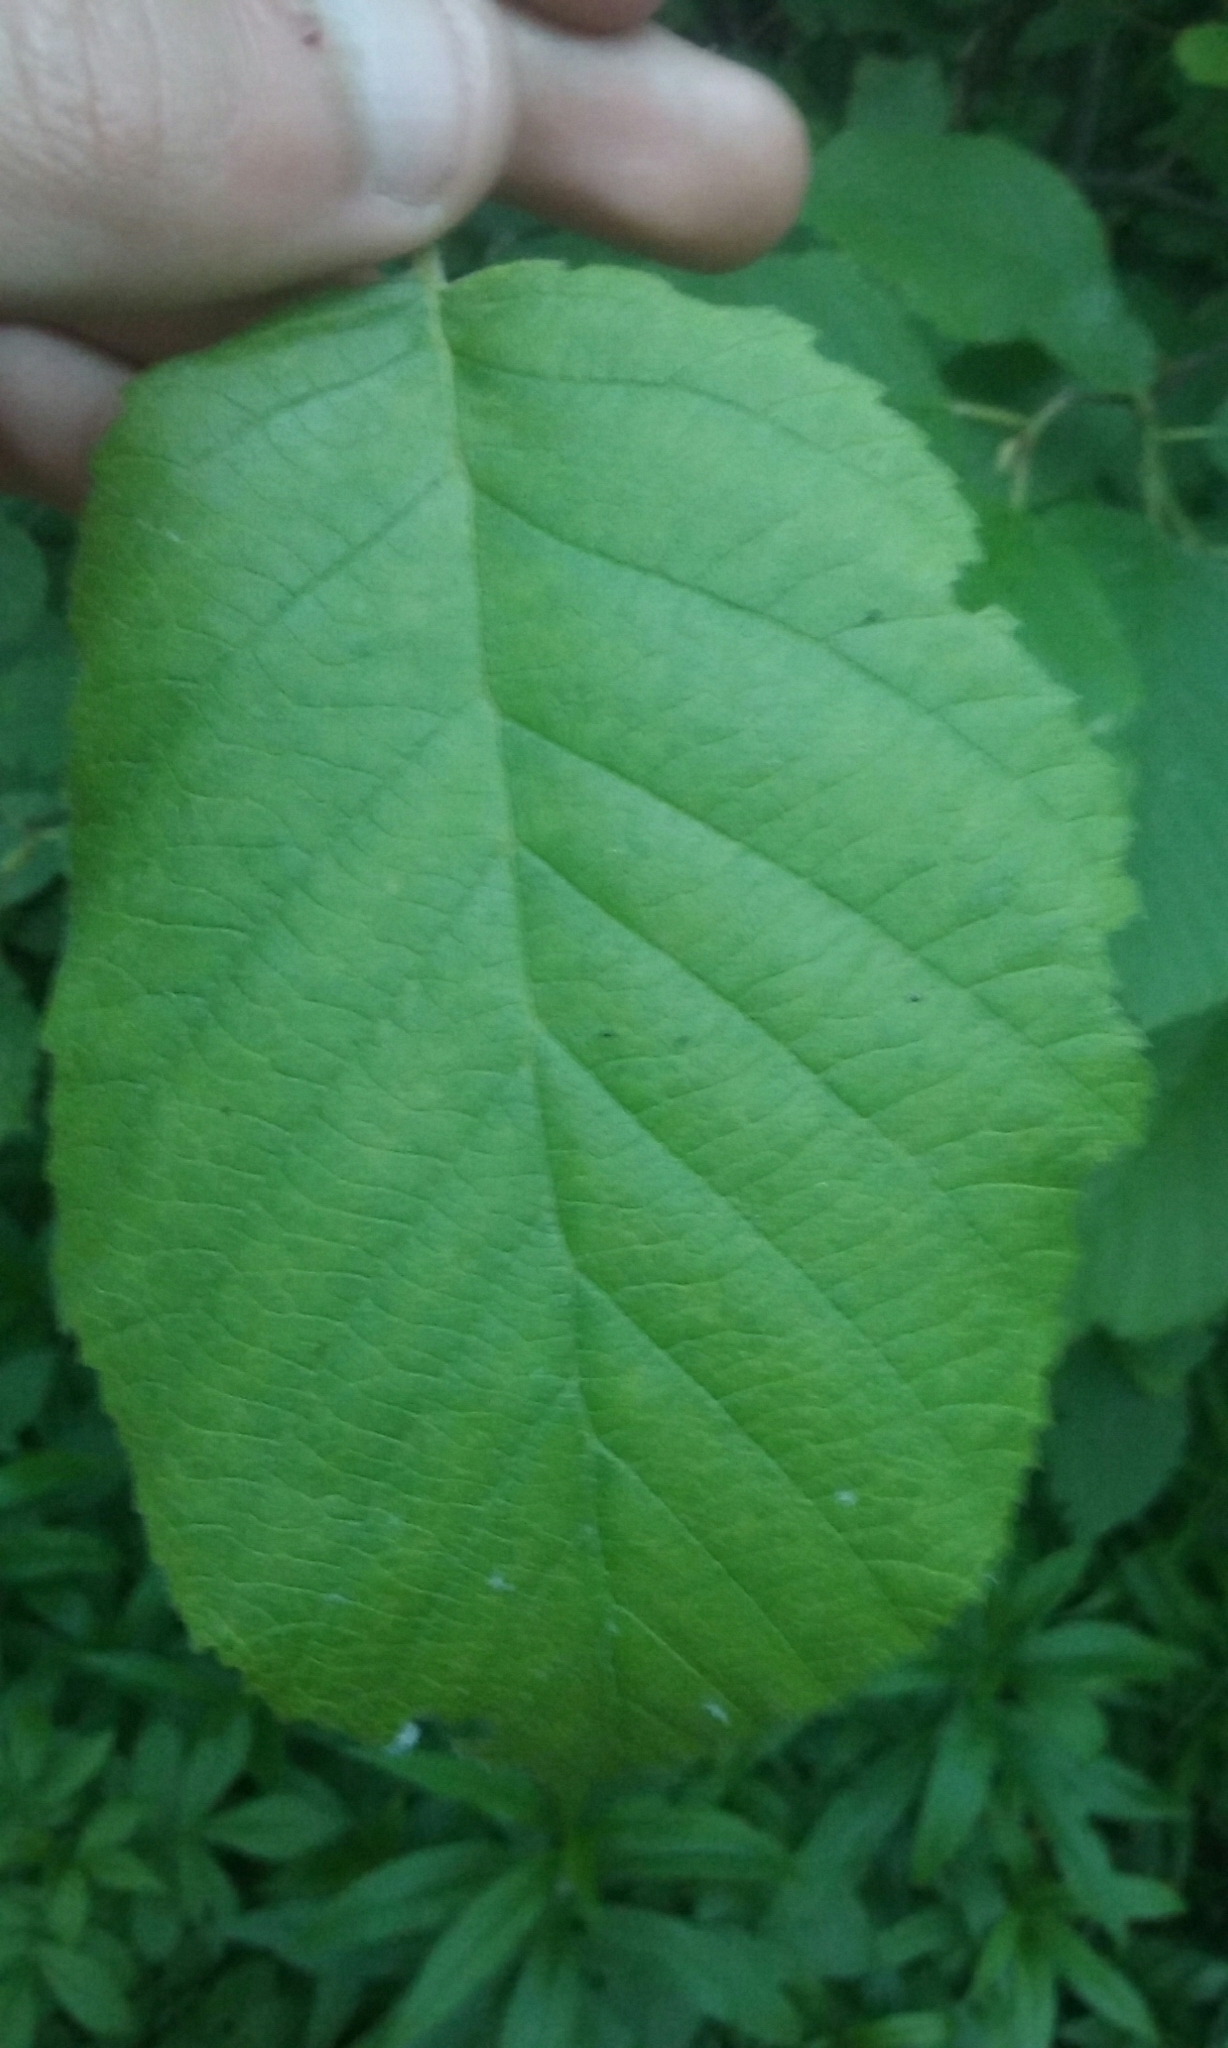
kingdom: Plantae
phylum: Tracheophyta
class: Magnoliopsida
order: Fagales
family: Betulaceae
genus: Alnus
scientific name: Alnus incana
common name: Grey alder
